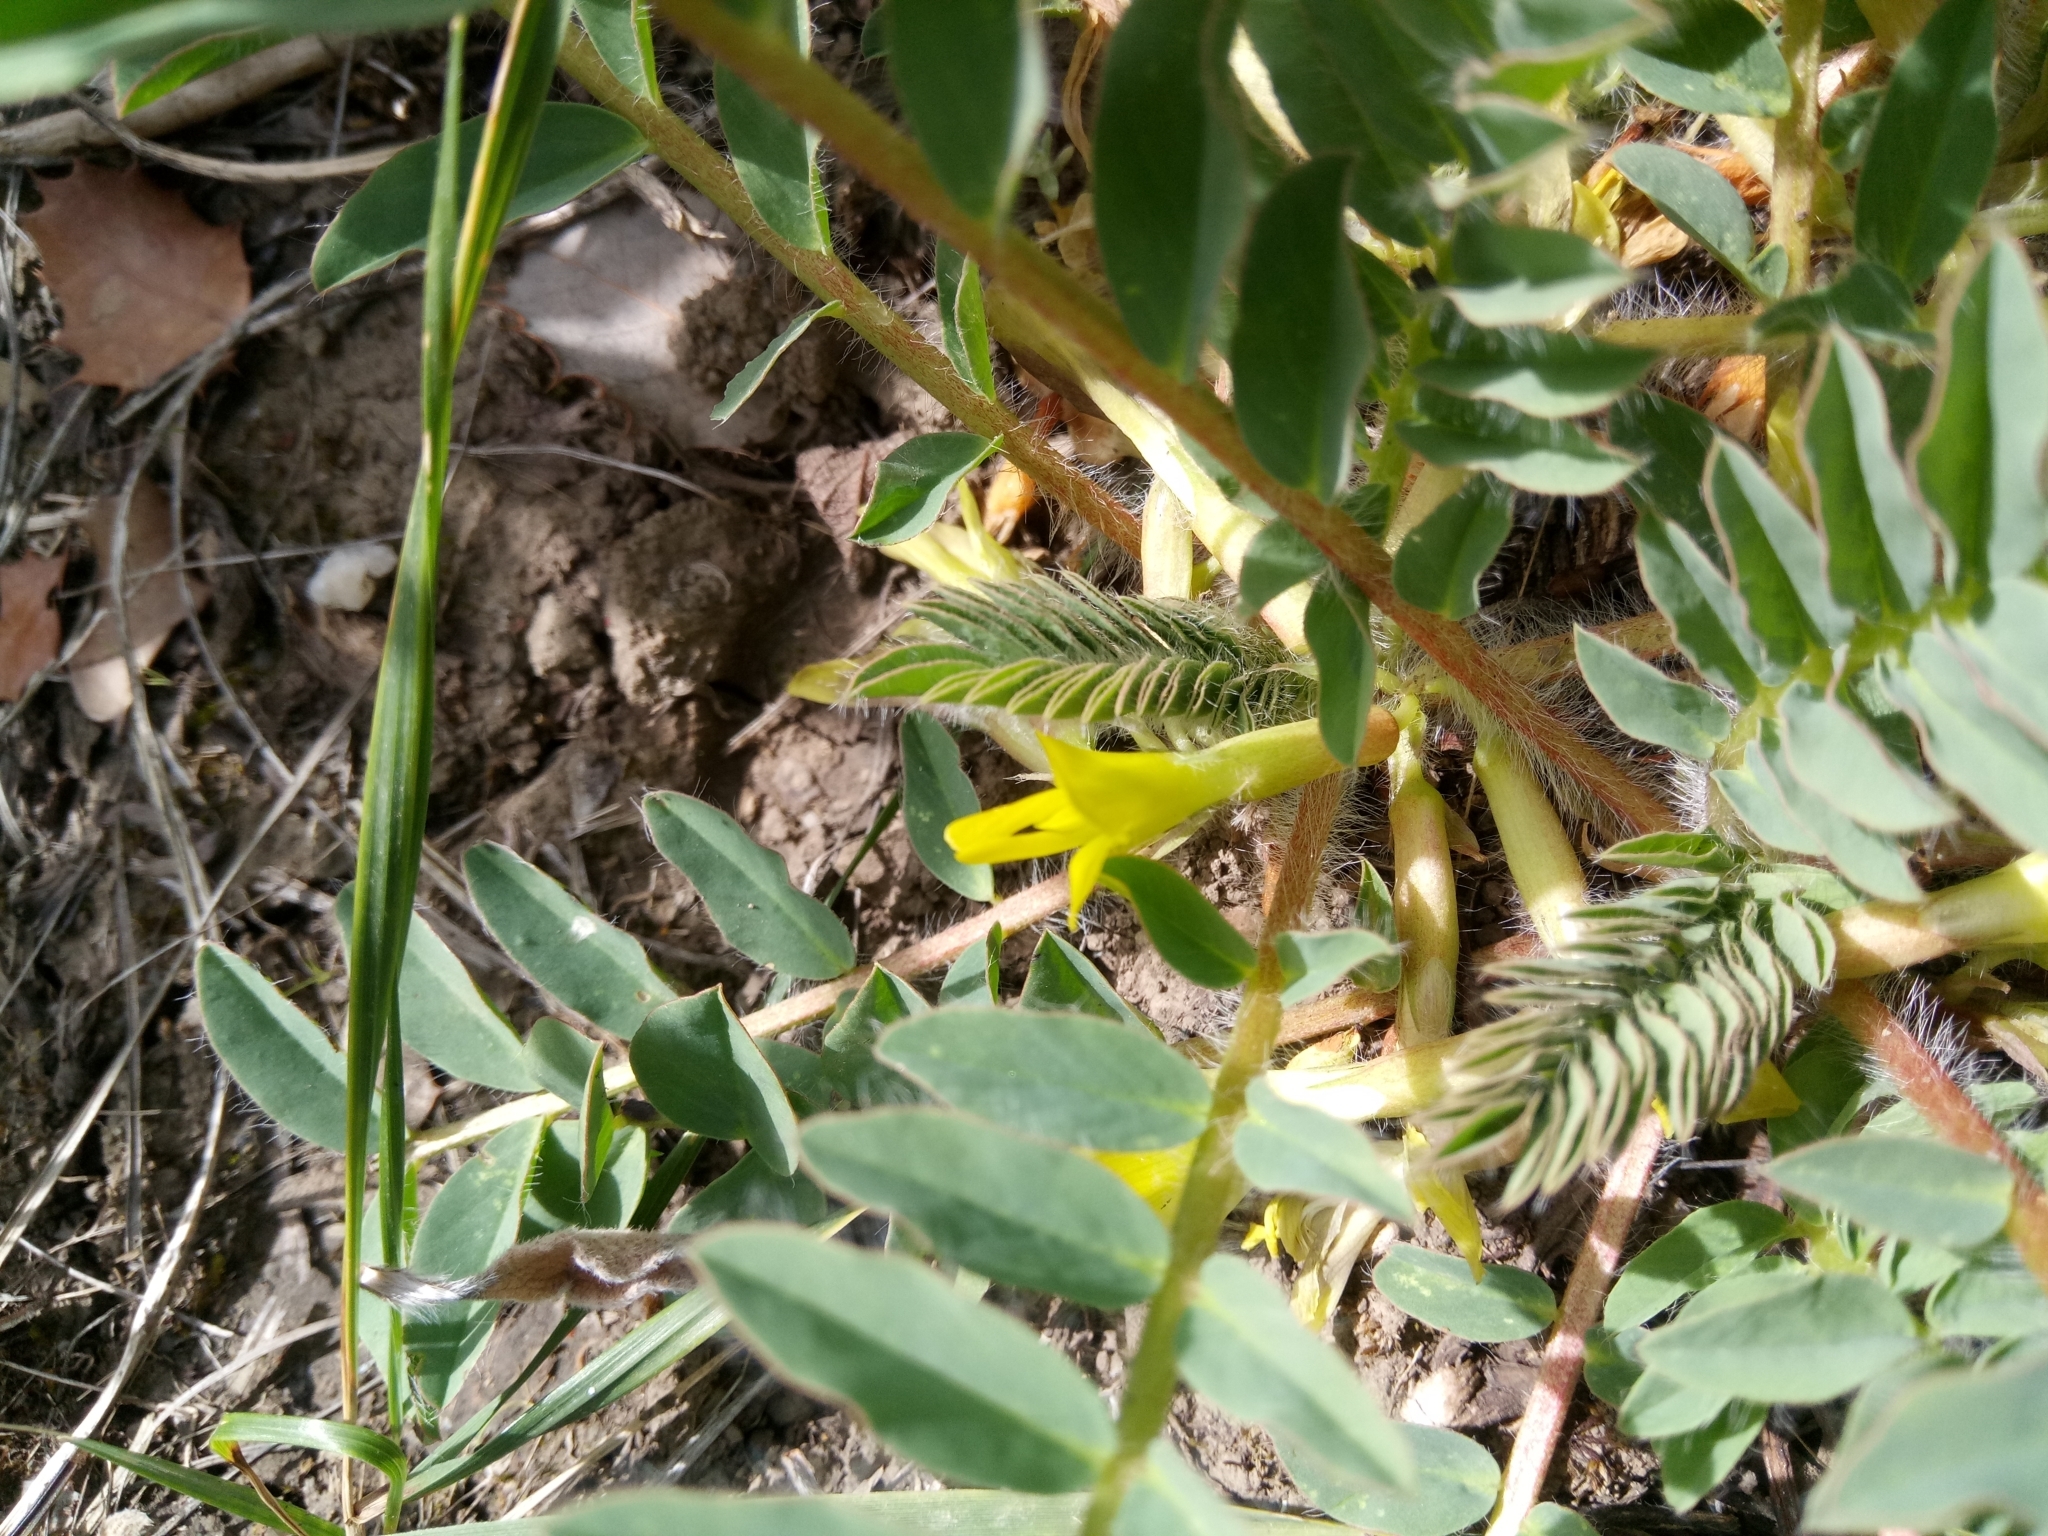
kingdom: Plantae
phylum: Tracheophyta
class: Magnoliopsida
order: Fabales
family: Fabaceae
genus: Astragalus
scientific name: Astragalus boreoafricanus
